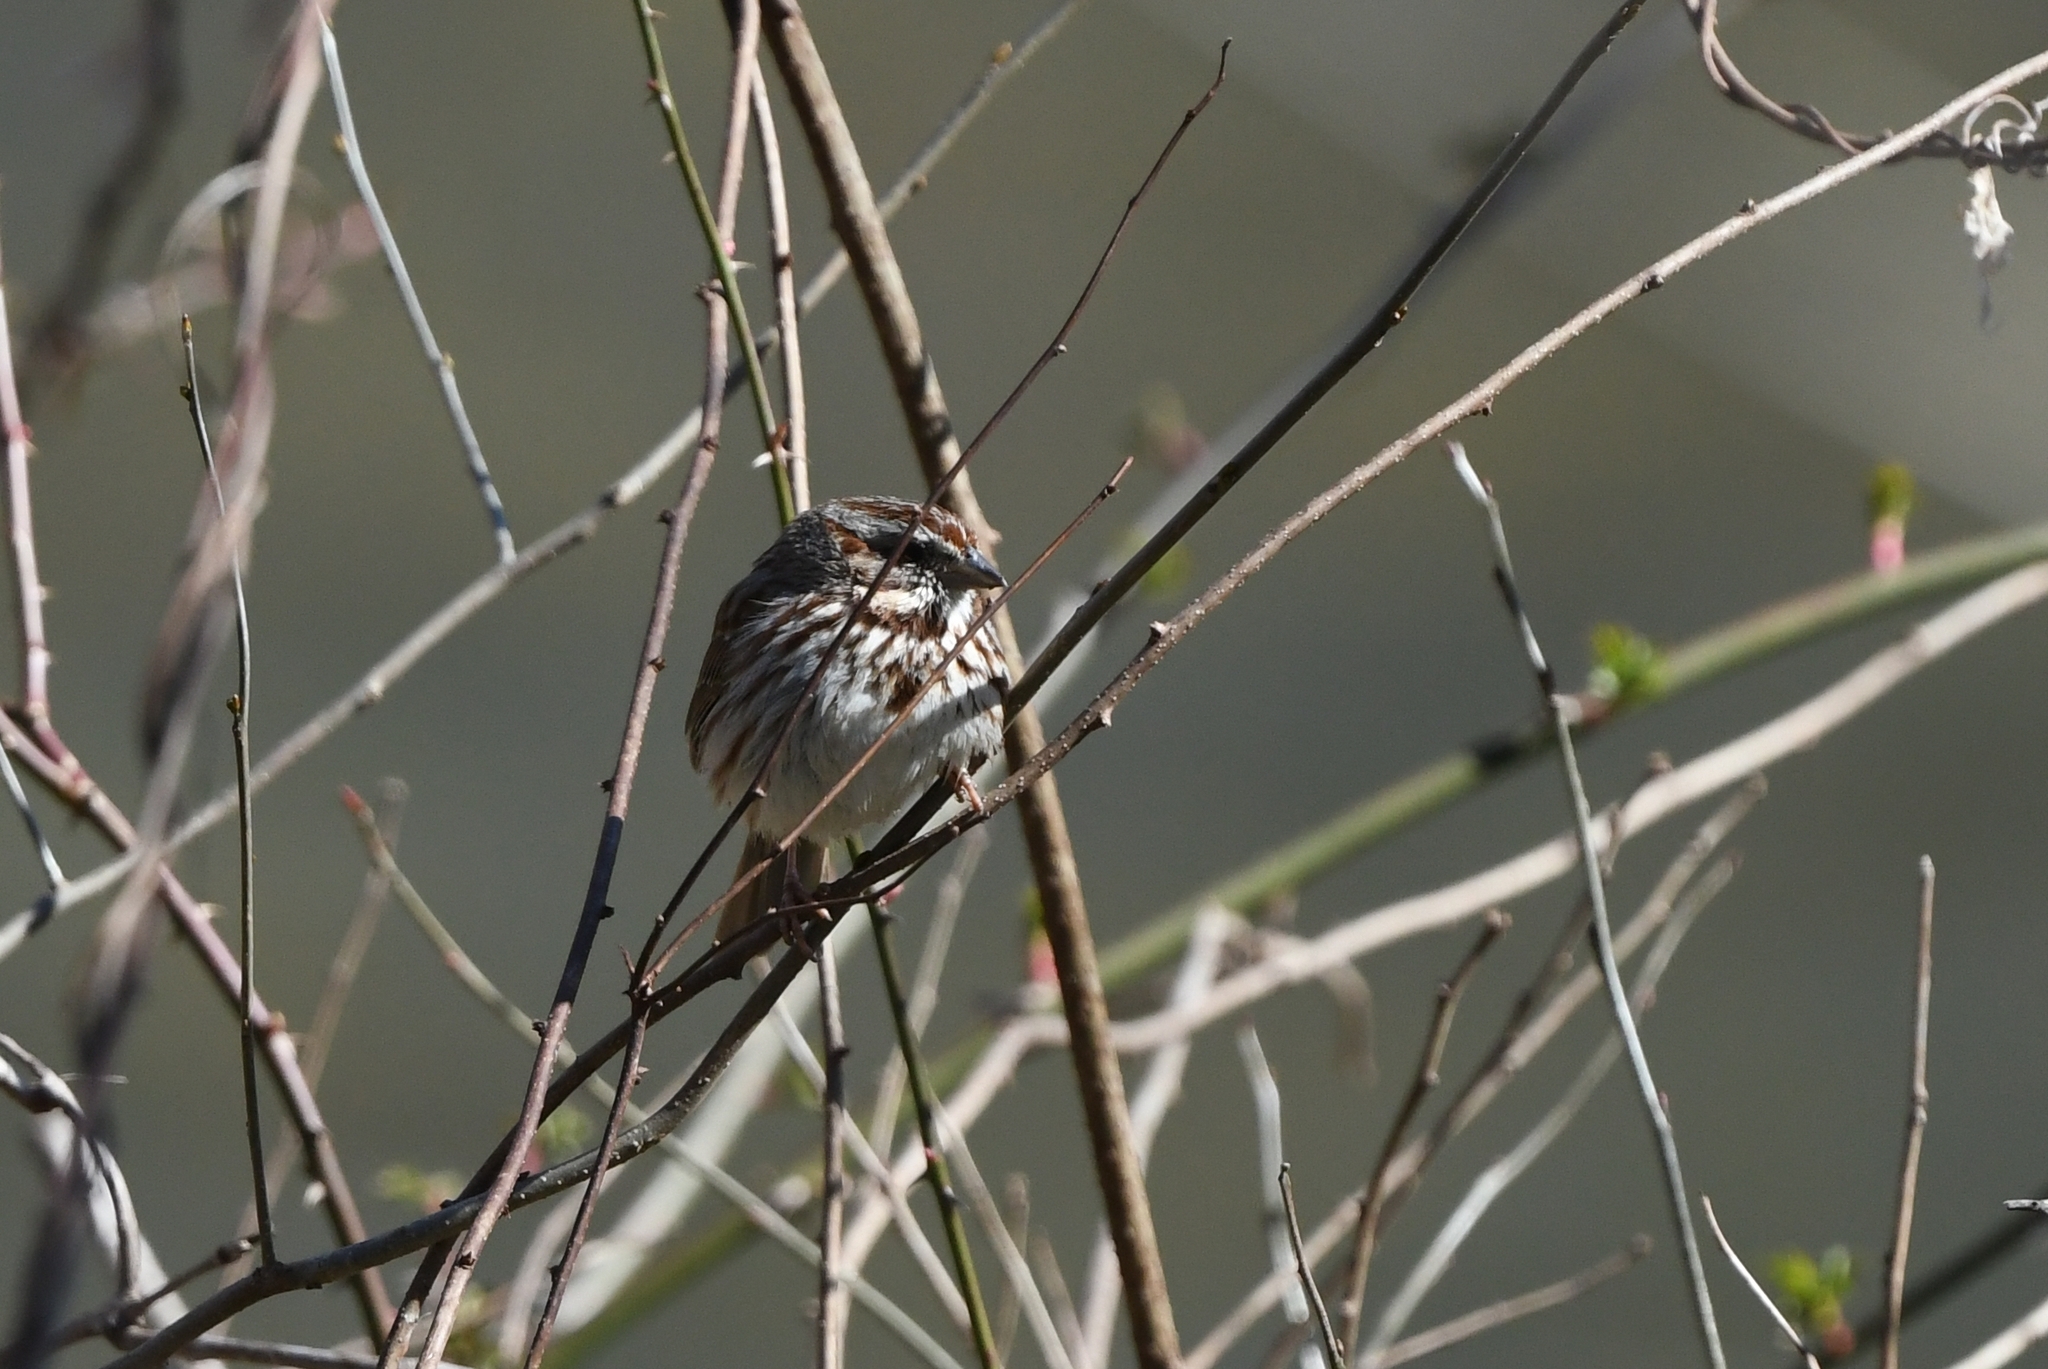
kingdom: Animalia
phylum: Chordata
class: Aves
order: Passeriformes
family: Passerellidae
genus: Melospiza
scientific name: Melospiza melodia
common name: Song sparrow
